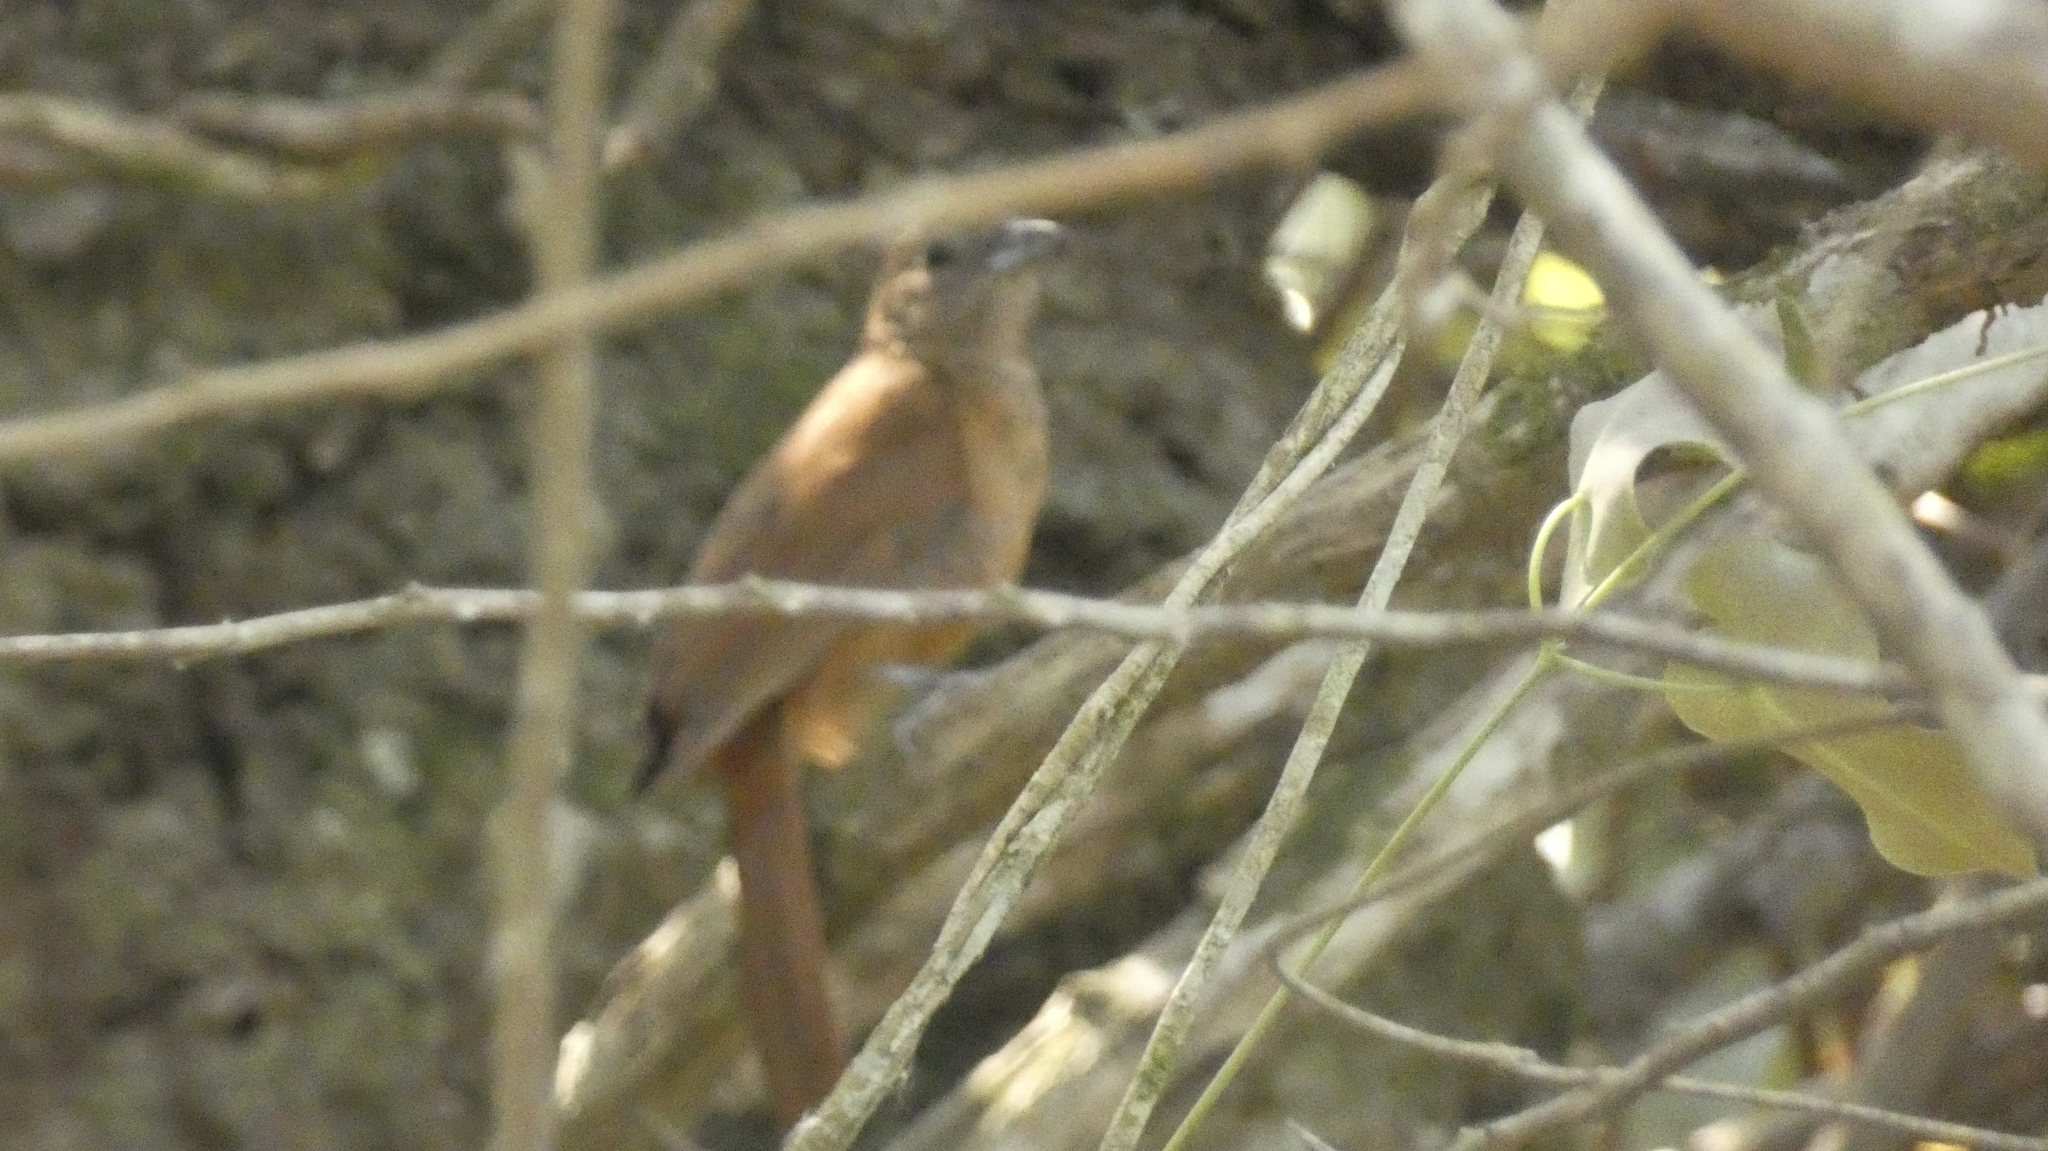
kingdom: Animalia
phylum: Chordata
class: Aves
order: Passeriformes
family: Thraupidae
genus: Tachyphonus
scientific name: Tachyphonus coronatus
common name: Ruby-crowned tanager
